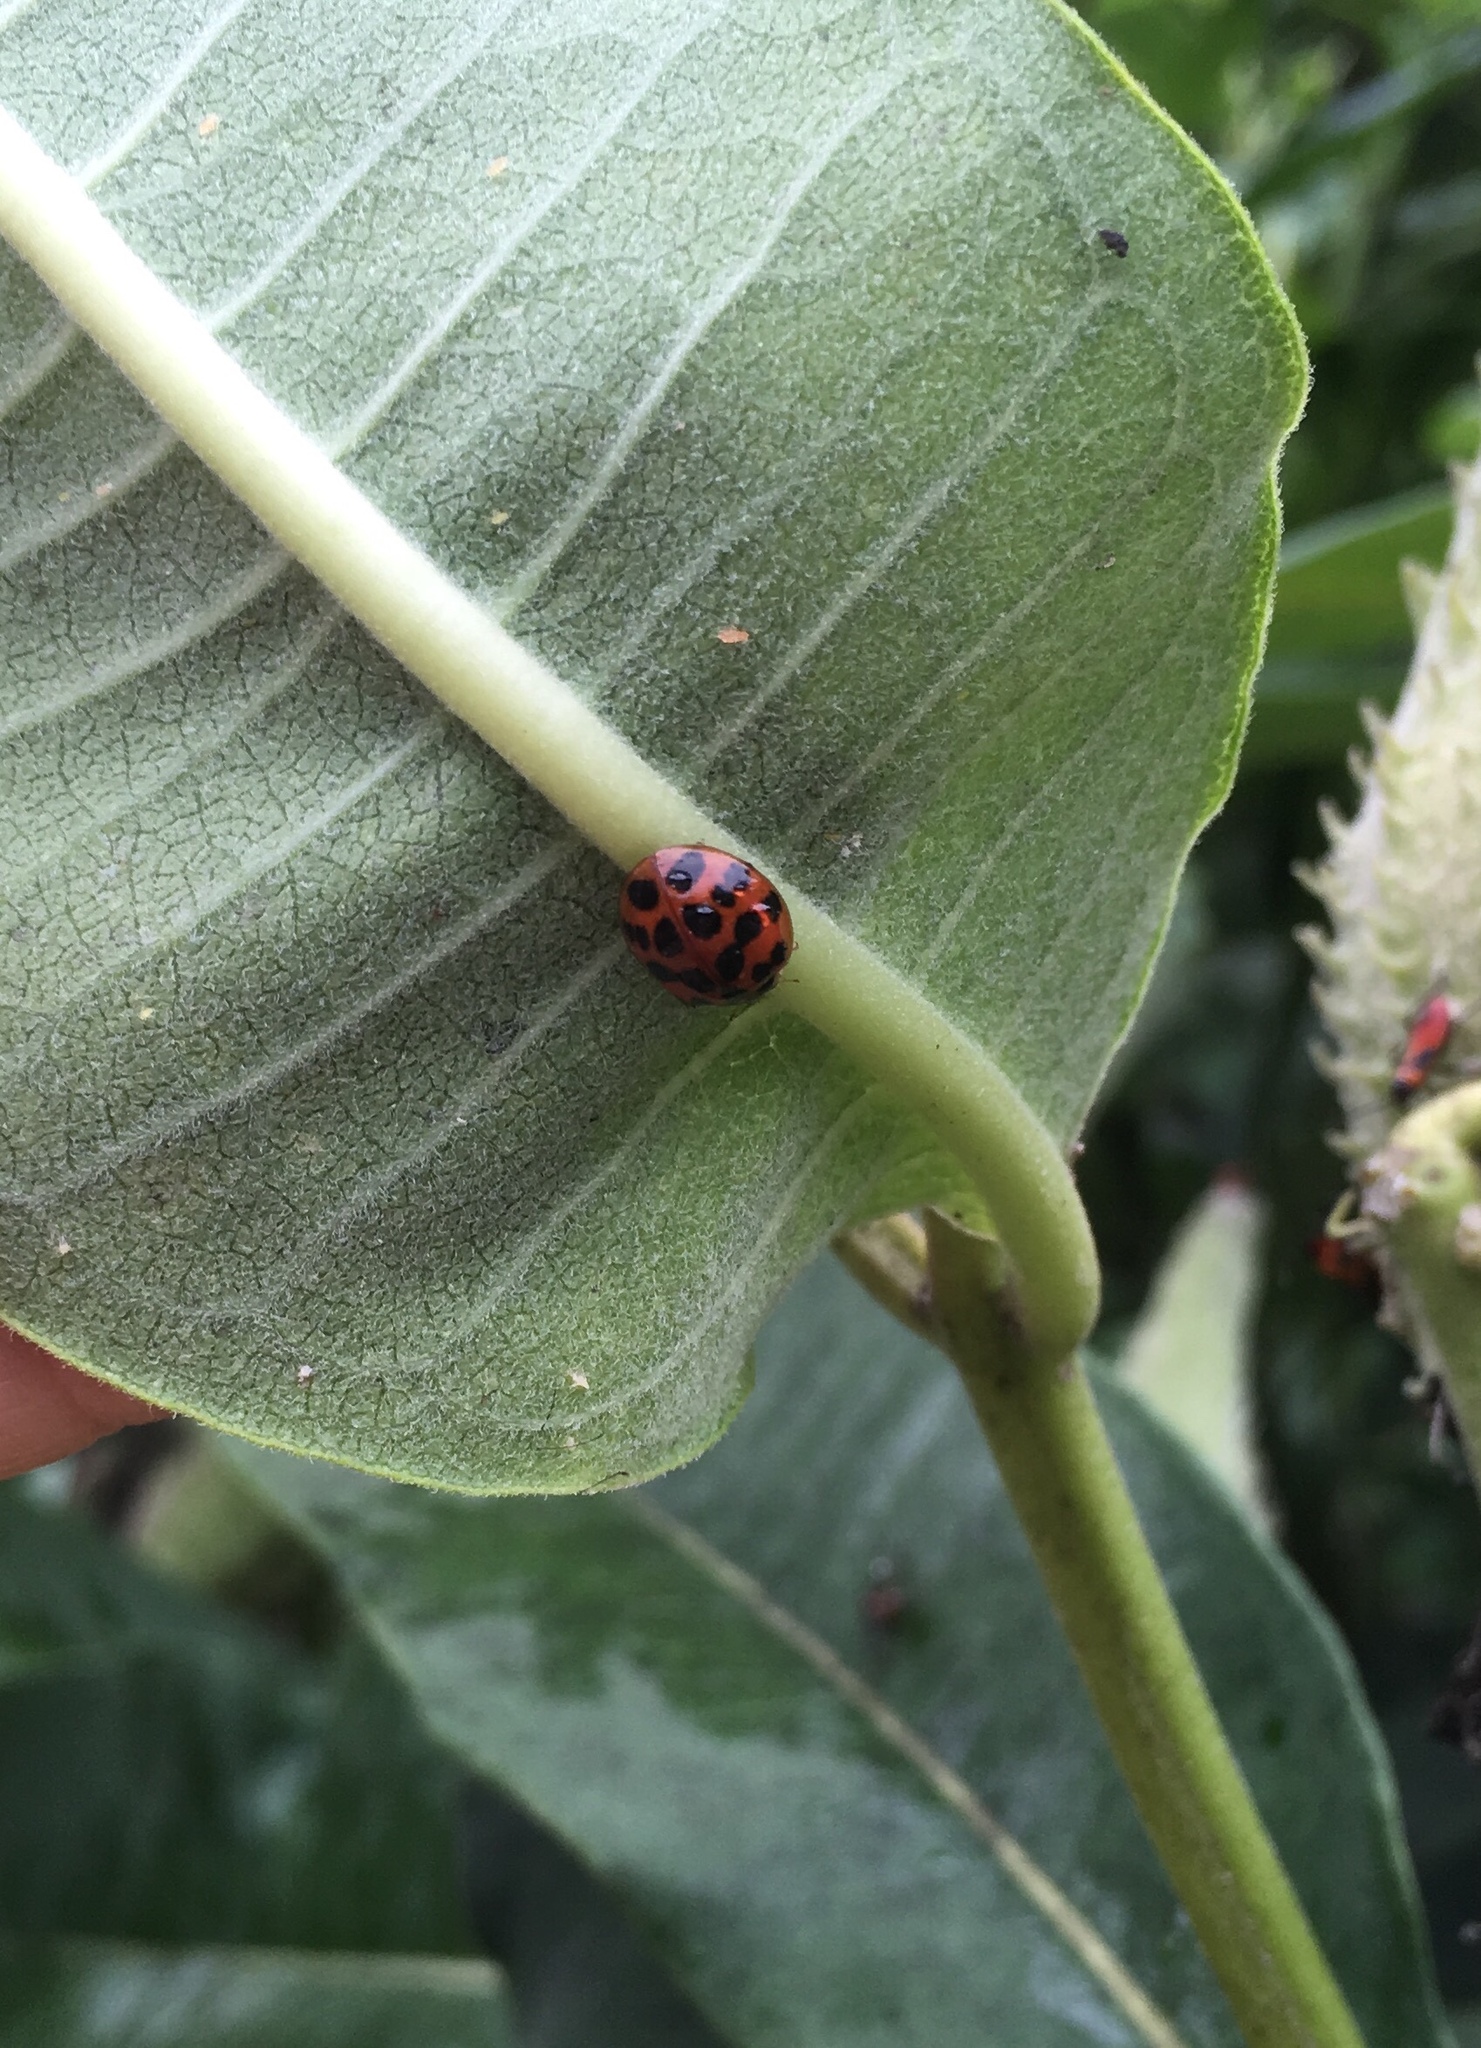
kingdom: Animalia
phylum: Arthropoda
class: Insecta
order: Coleoptera
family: Coccinellidae
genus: Harmonia
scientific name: Harmonia axyridis
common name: Harlequin ladybird
